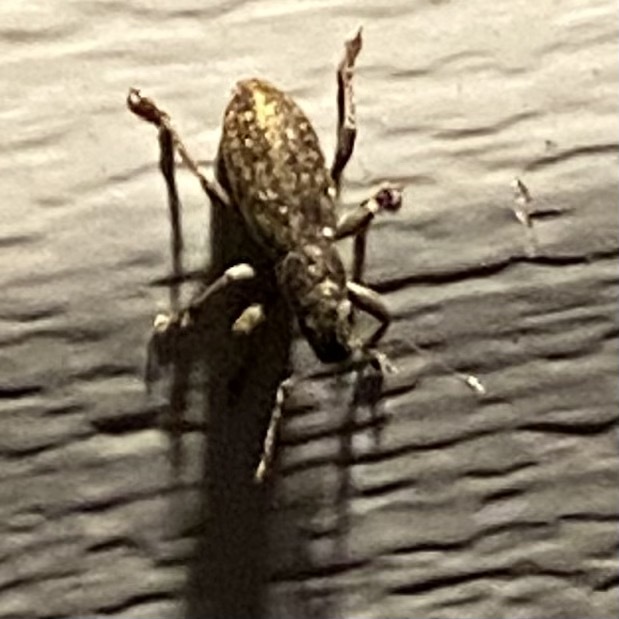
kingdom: Animalia
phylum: Arthropoda
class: Insecta
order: Coleoptera
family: Curculionidae
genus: Brachyderes
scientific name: Brachyderes incanus
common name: Weevil
